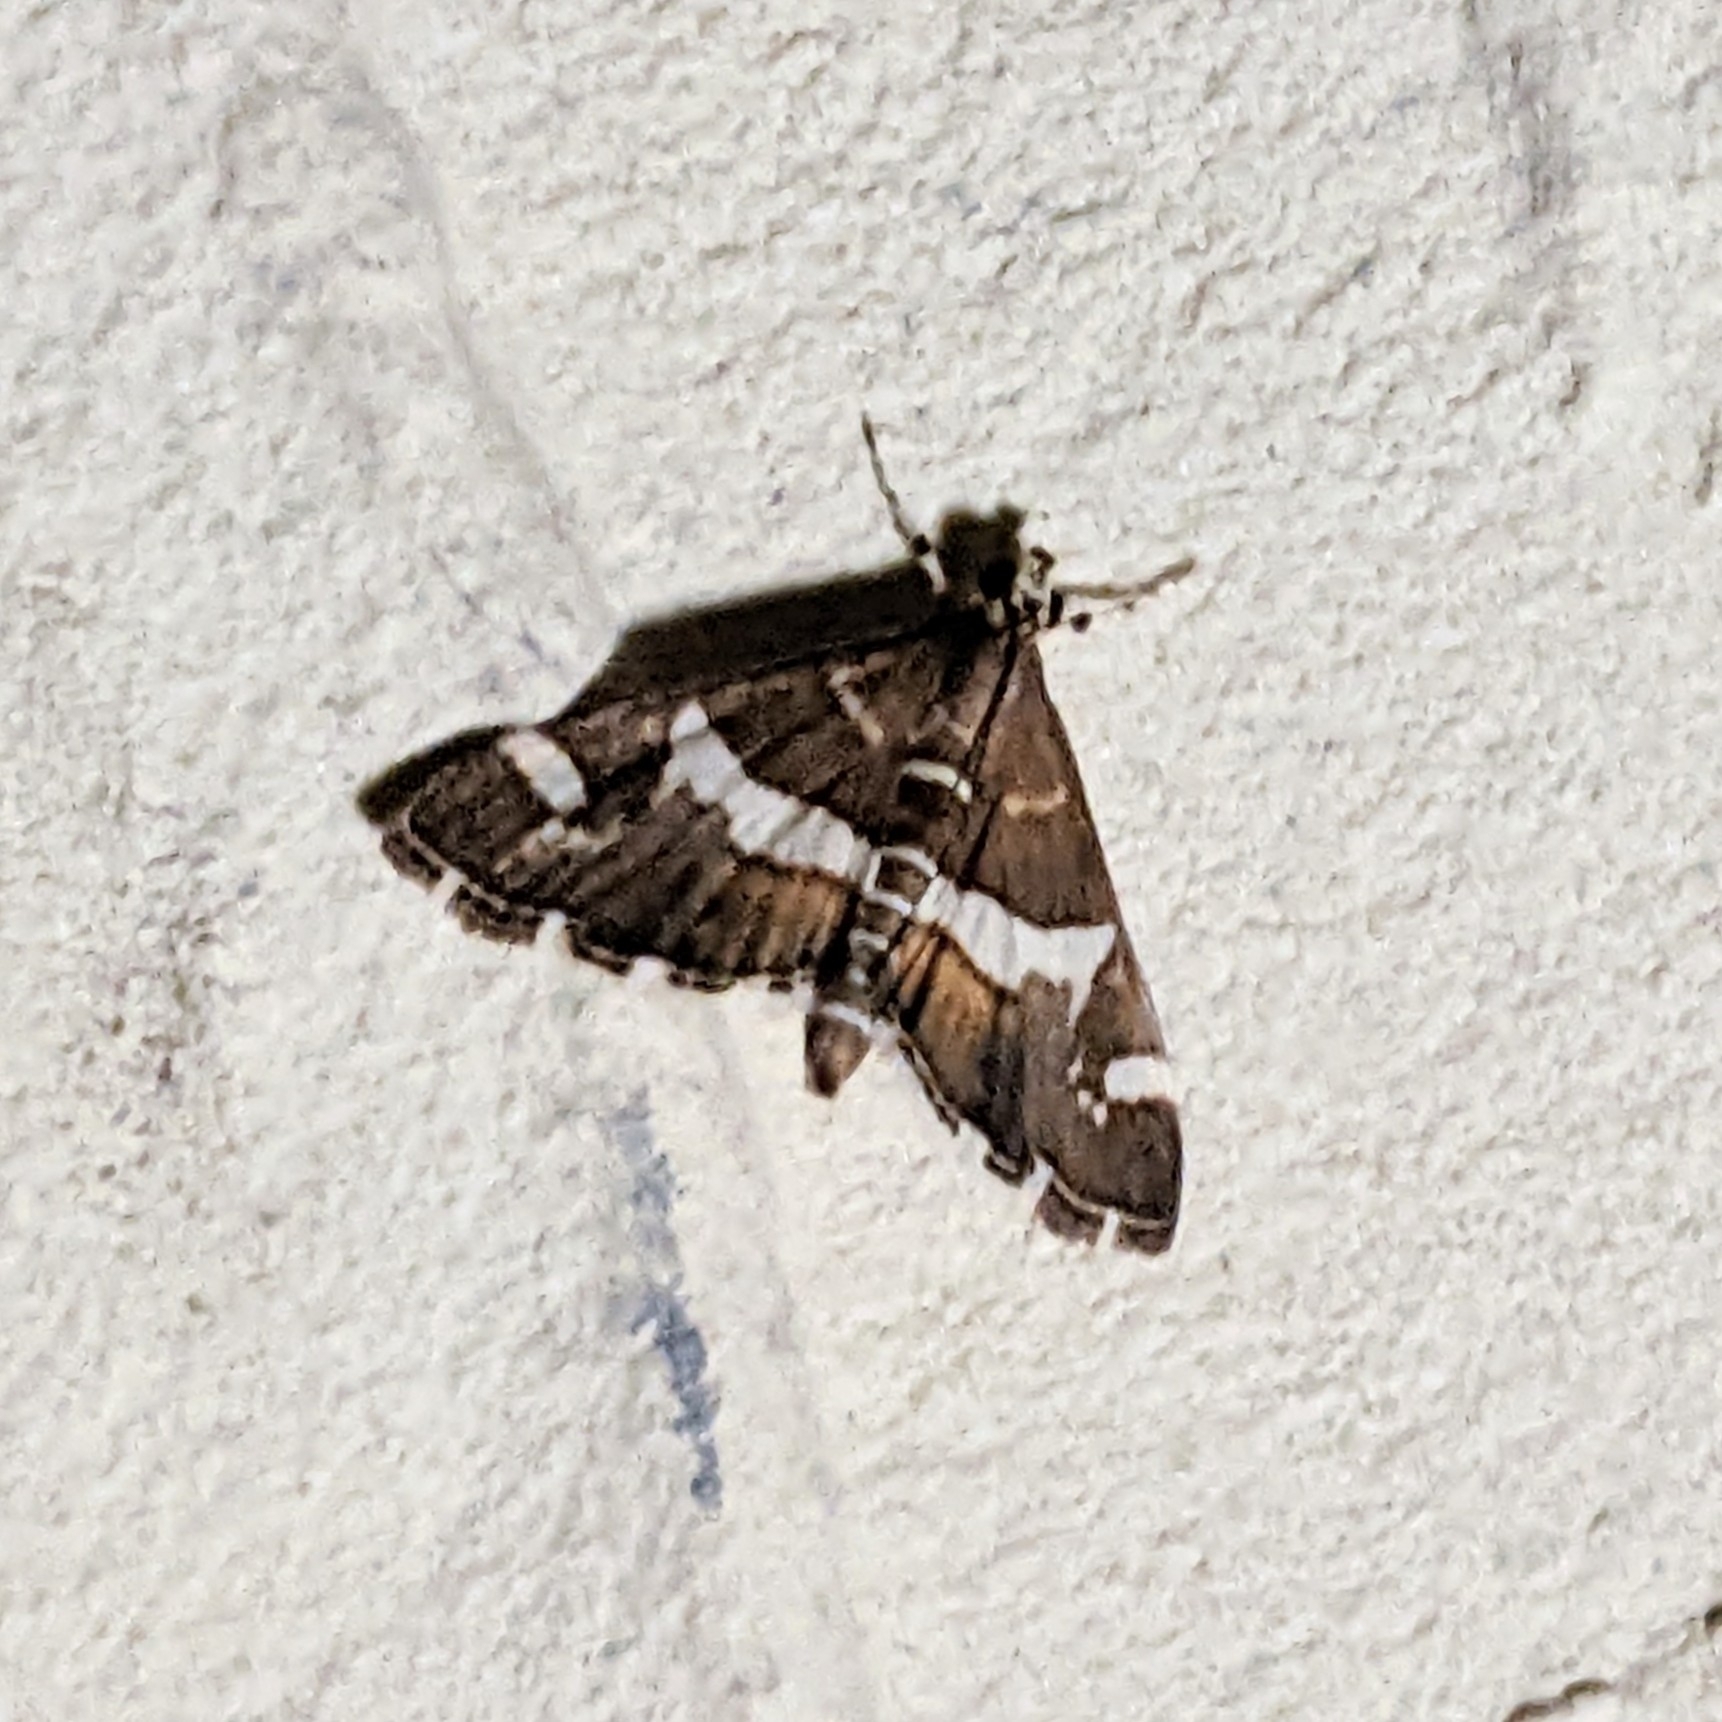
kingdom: Animalia
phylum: Arthropoda
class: Insecta
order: Lepidoptera
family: Crambidae
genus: Spoladea
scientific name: Spoladea recurvalis
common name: Beet webworm moth
